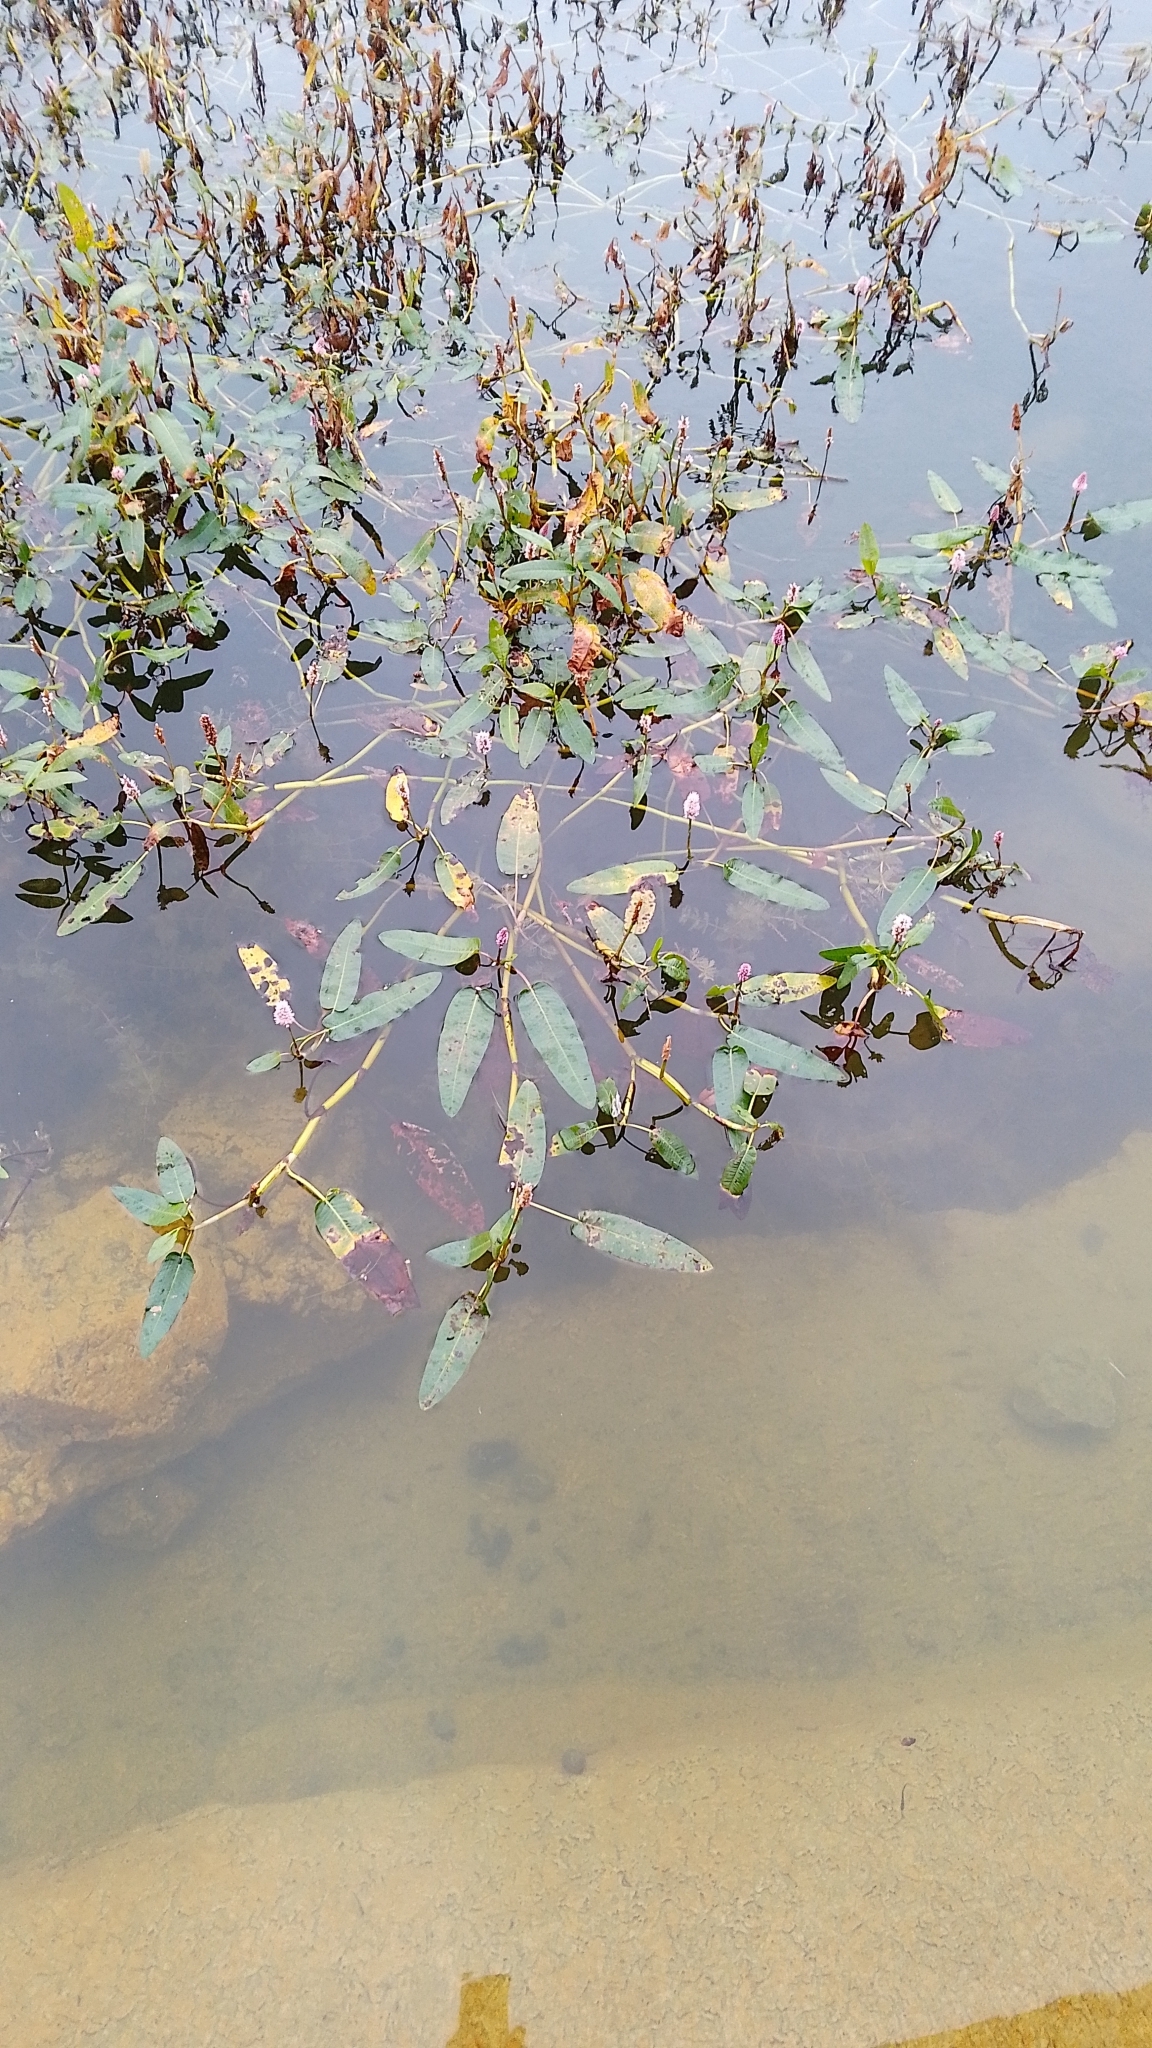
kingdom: Plantae
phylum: Tracheophyta
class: Magnoliopsida
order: Caryophyllales
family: Polygonaceae
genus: Persicaria
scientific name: Persicaria amphibia
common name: Amphibious bistort
